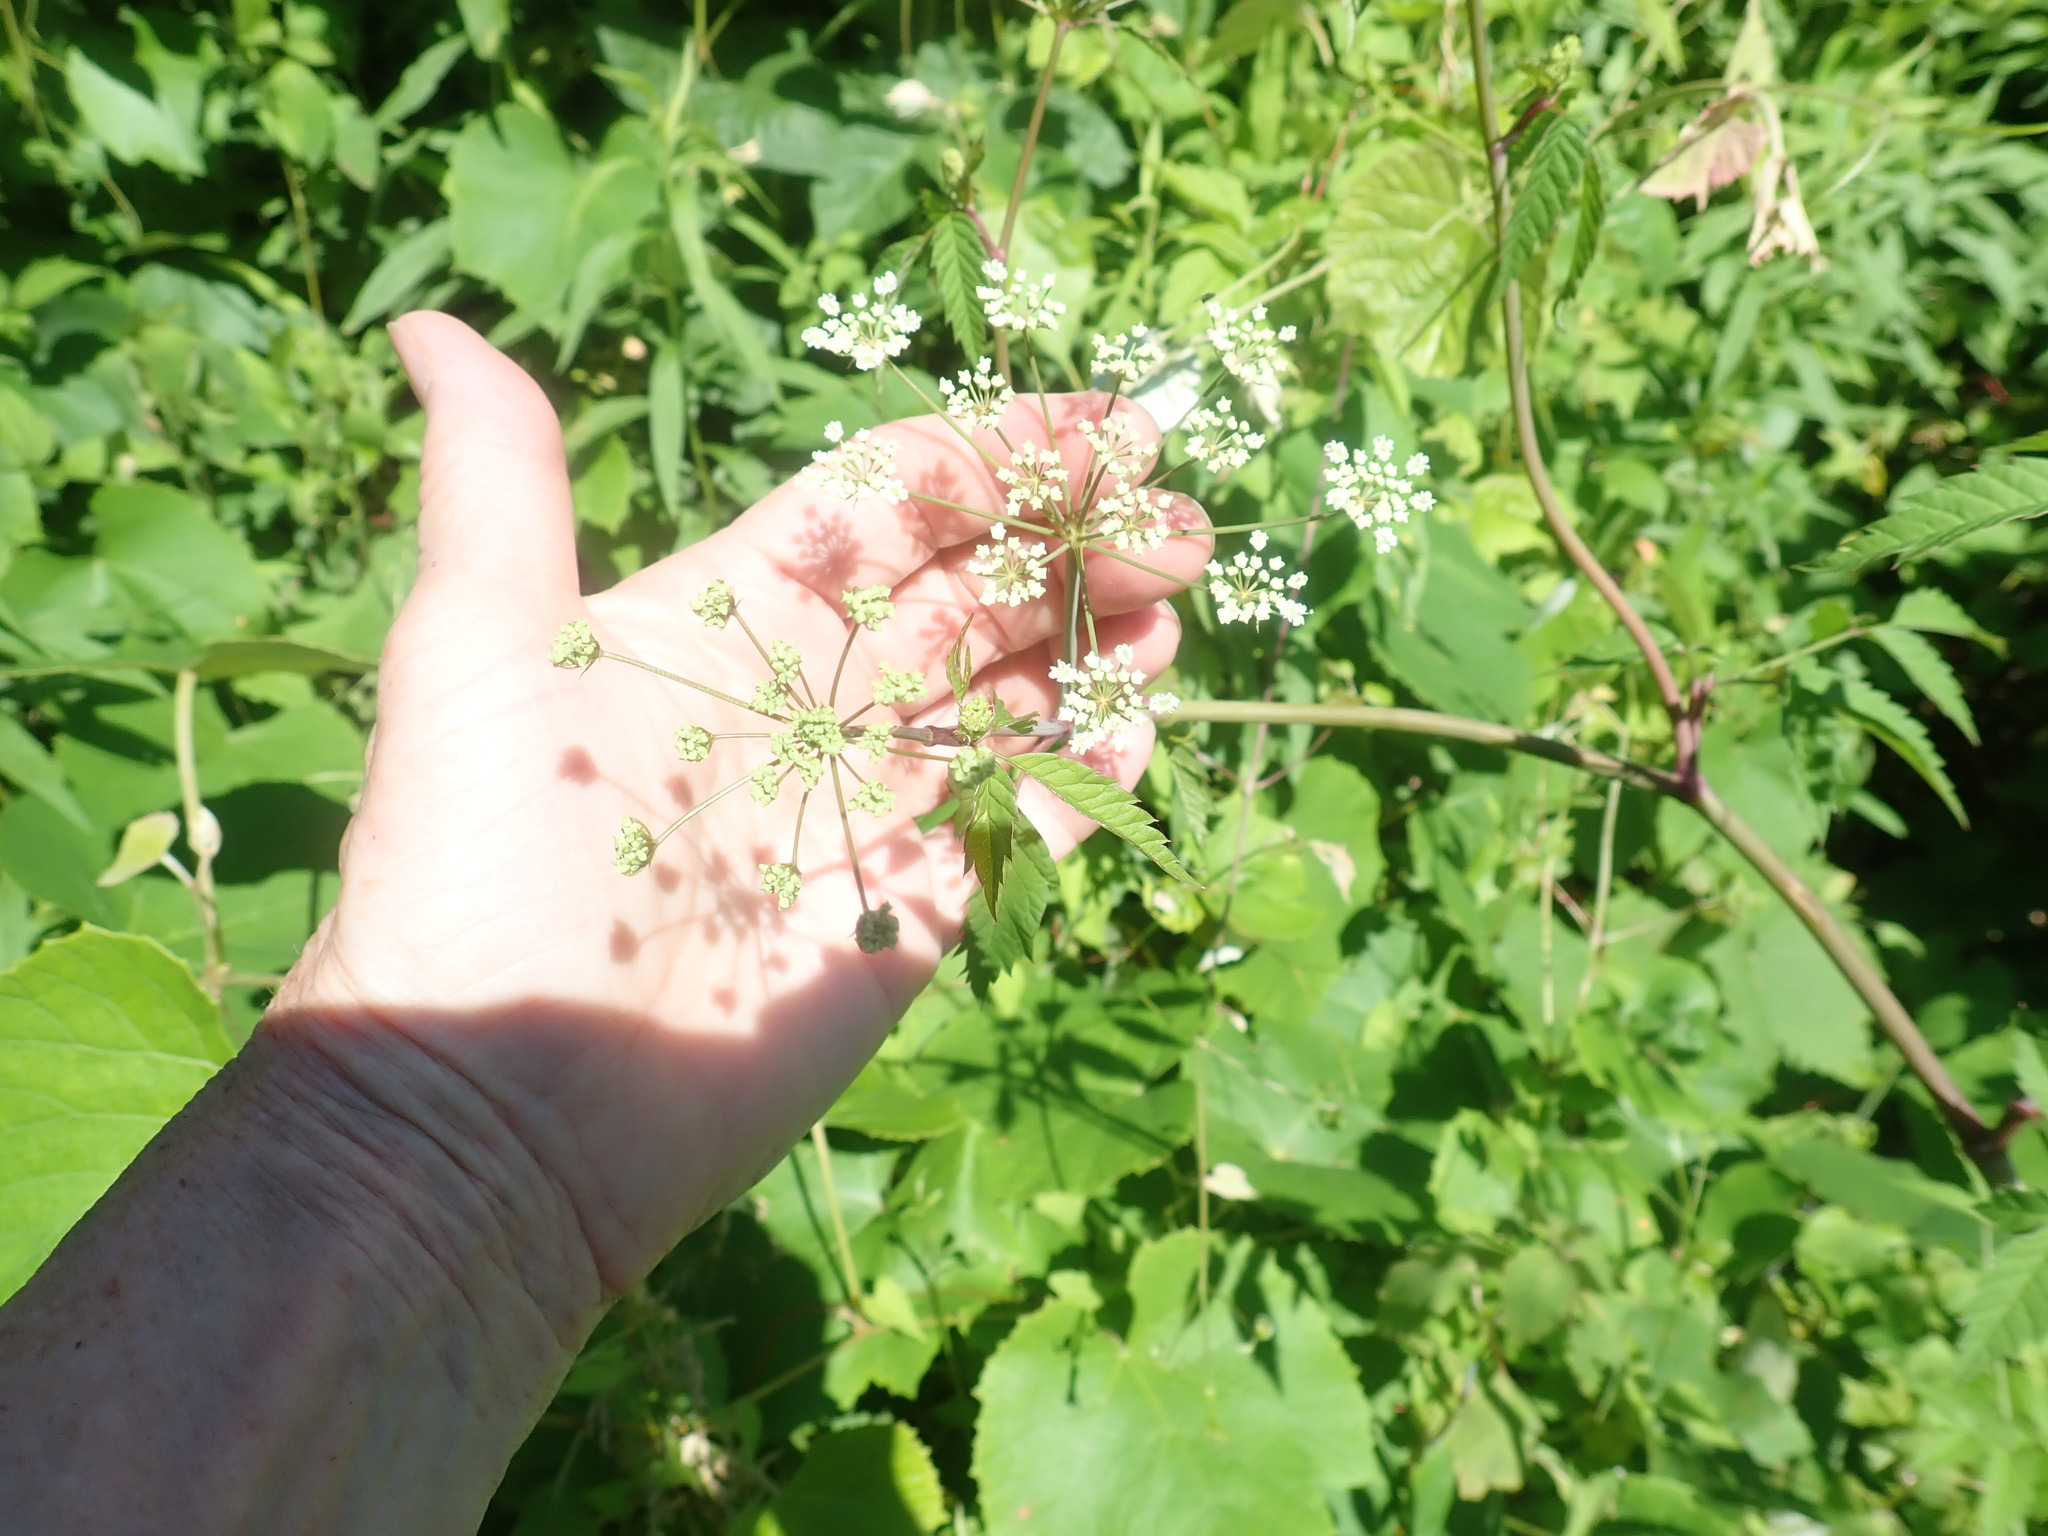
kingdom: Plantae
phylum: Tracheophyta
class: Magnoliopsida
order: Apiales
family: Apiaceae
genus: Cicuta
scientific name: Cicuta maculata
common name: Spotted cowbane
